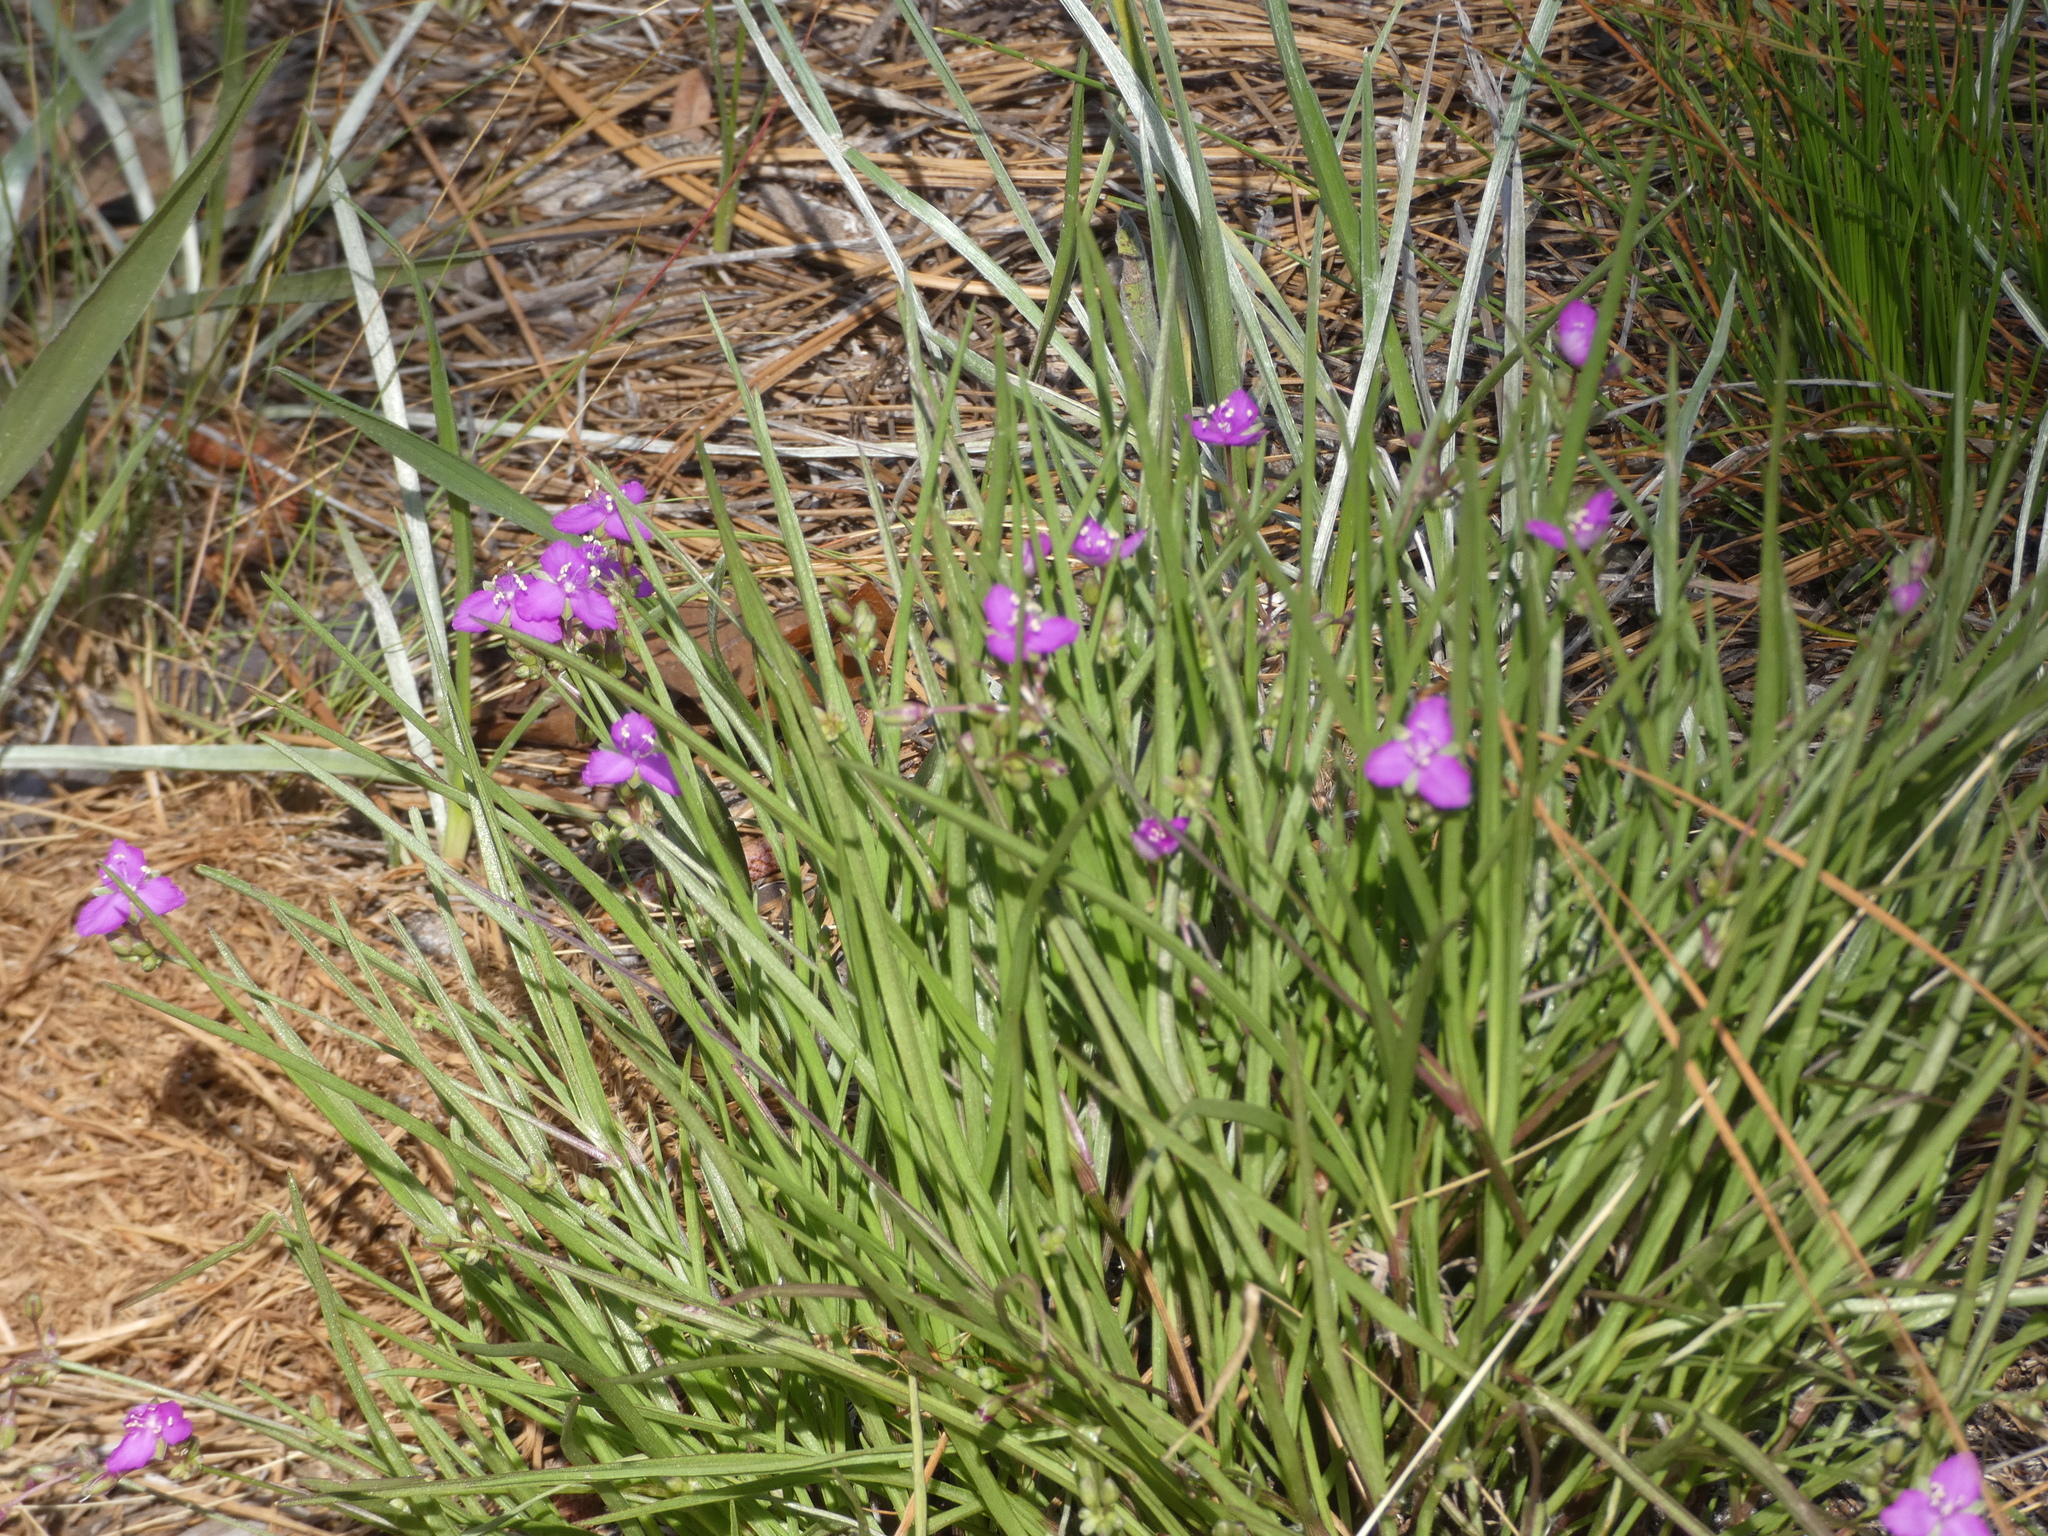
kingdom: Plantae
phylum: Tracheophyta
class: Liliopsida
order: Commelinales
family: Commelinaceae
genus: Callisia
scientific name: Callisia graminea
